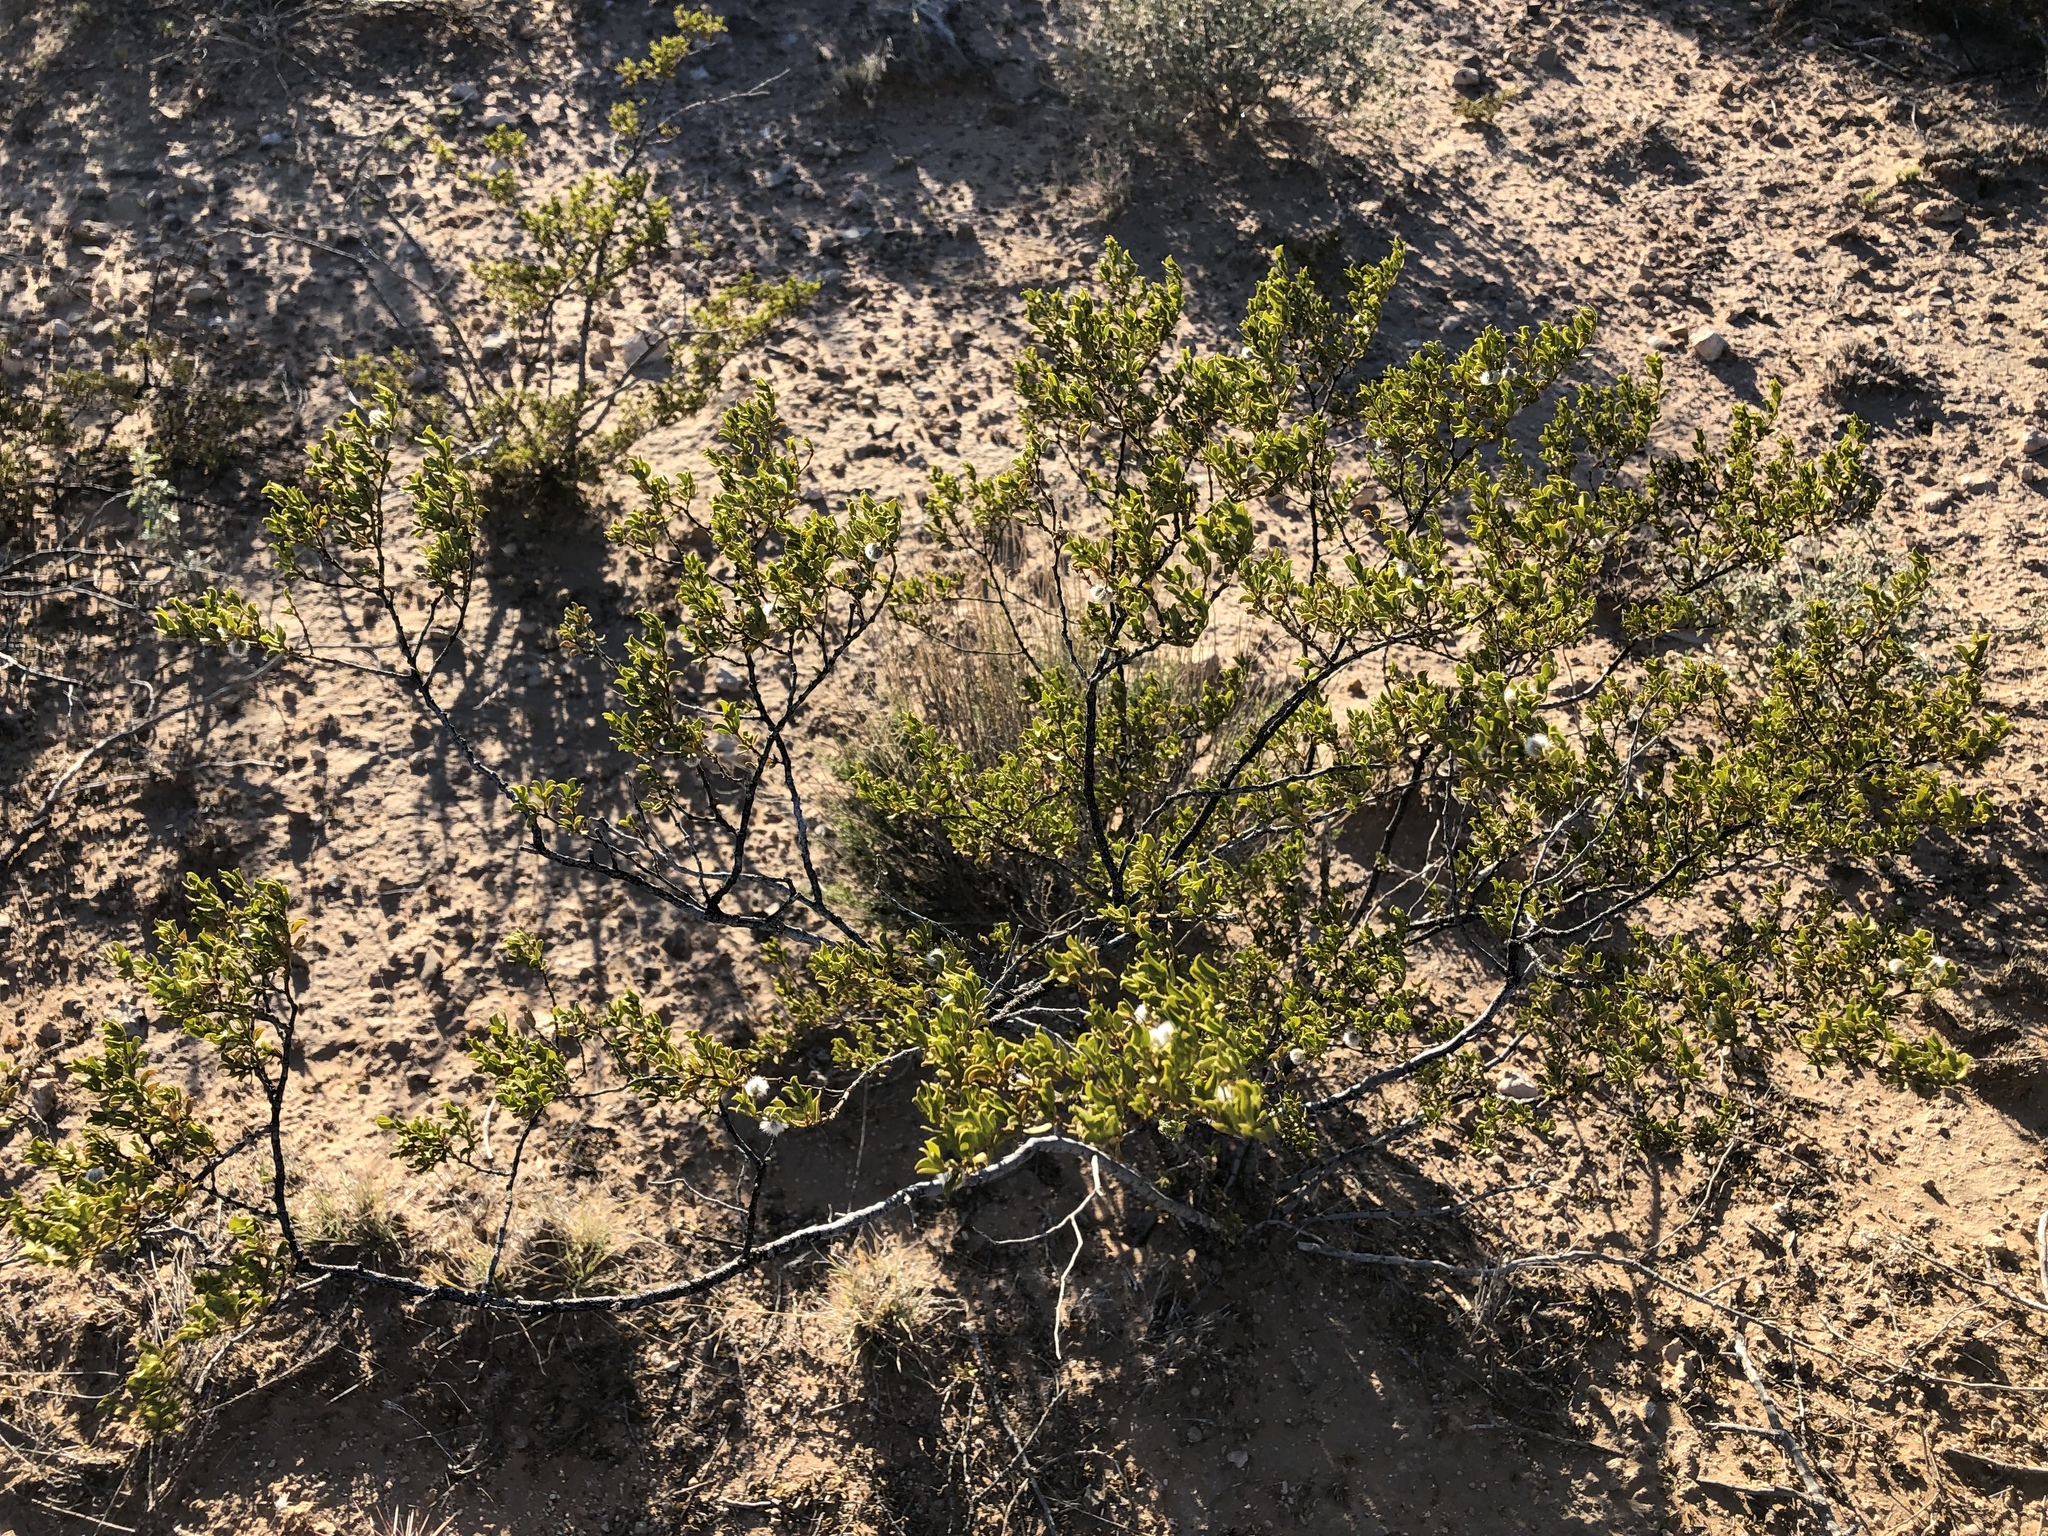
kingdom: Plantae
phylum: Tracheophyta
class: Magnoliopsida
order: Zygophyllales
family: Zygophyllaceae
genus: Larrea
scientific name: Larrea tridentata
